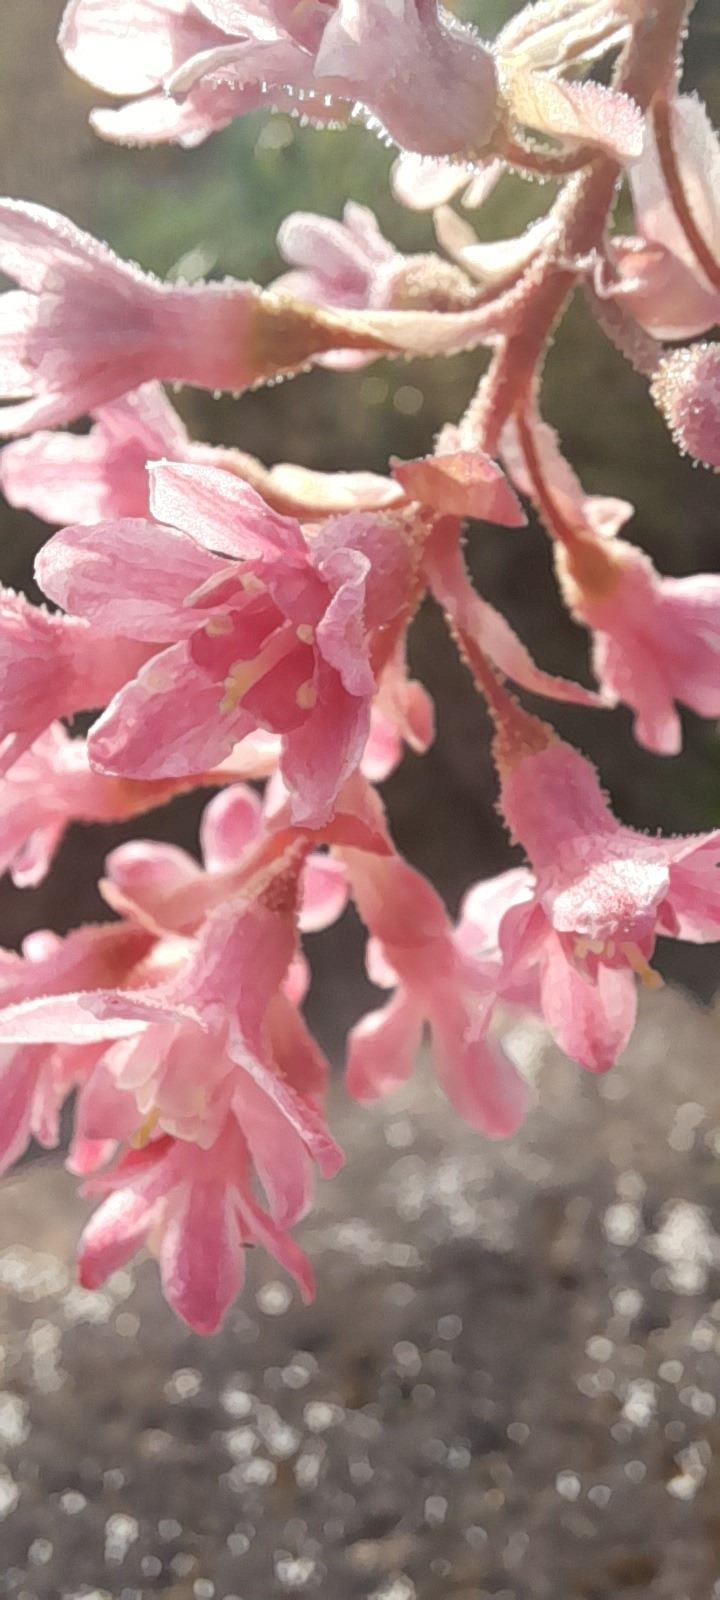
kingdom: Plantae
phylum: Tracheophyta
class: Magnoliopsida
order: Saxifragales
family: Grossulariaceae
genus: Ribes
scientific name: Ribes sanguineum
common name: Flowering currant
